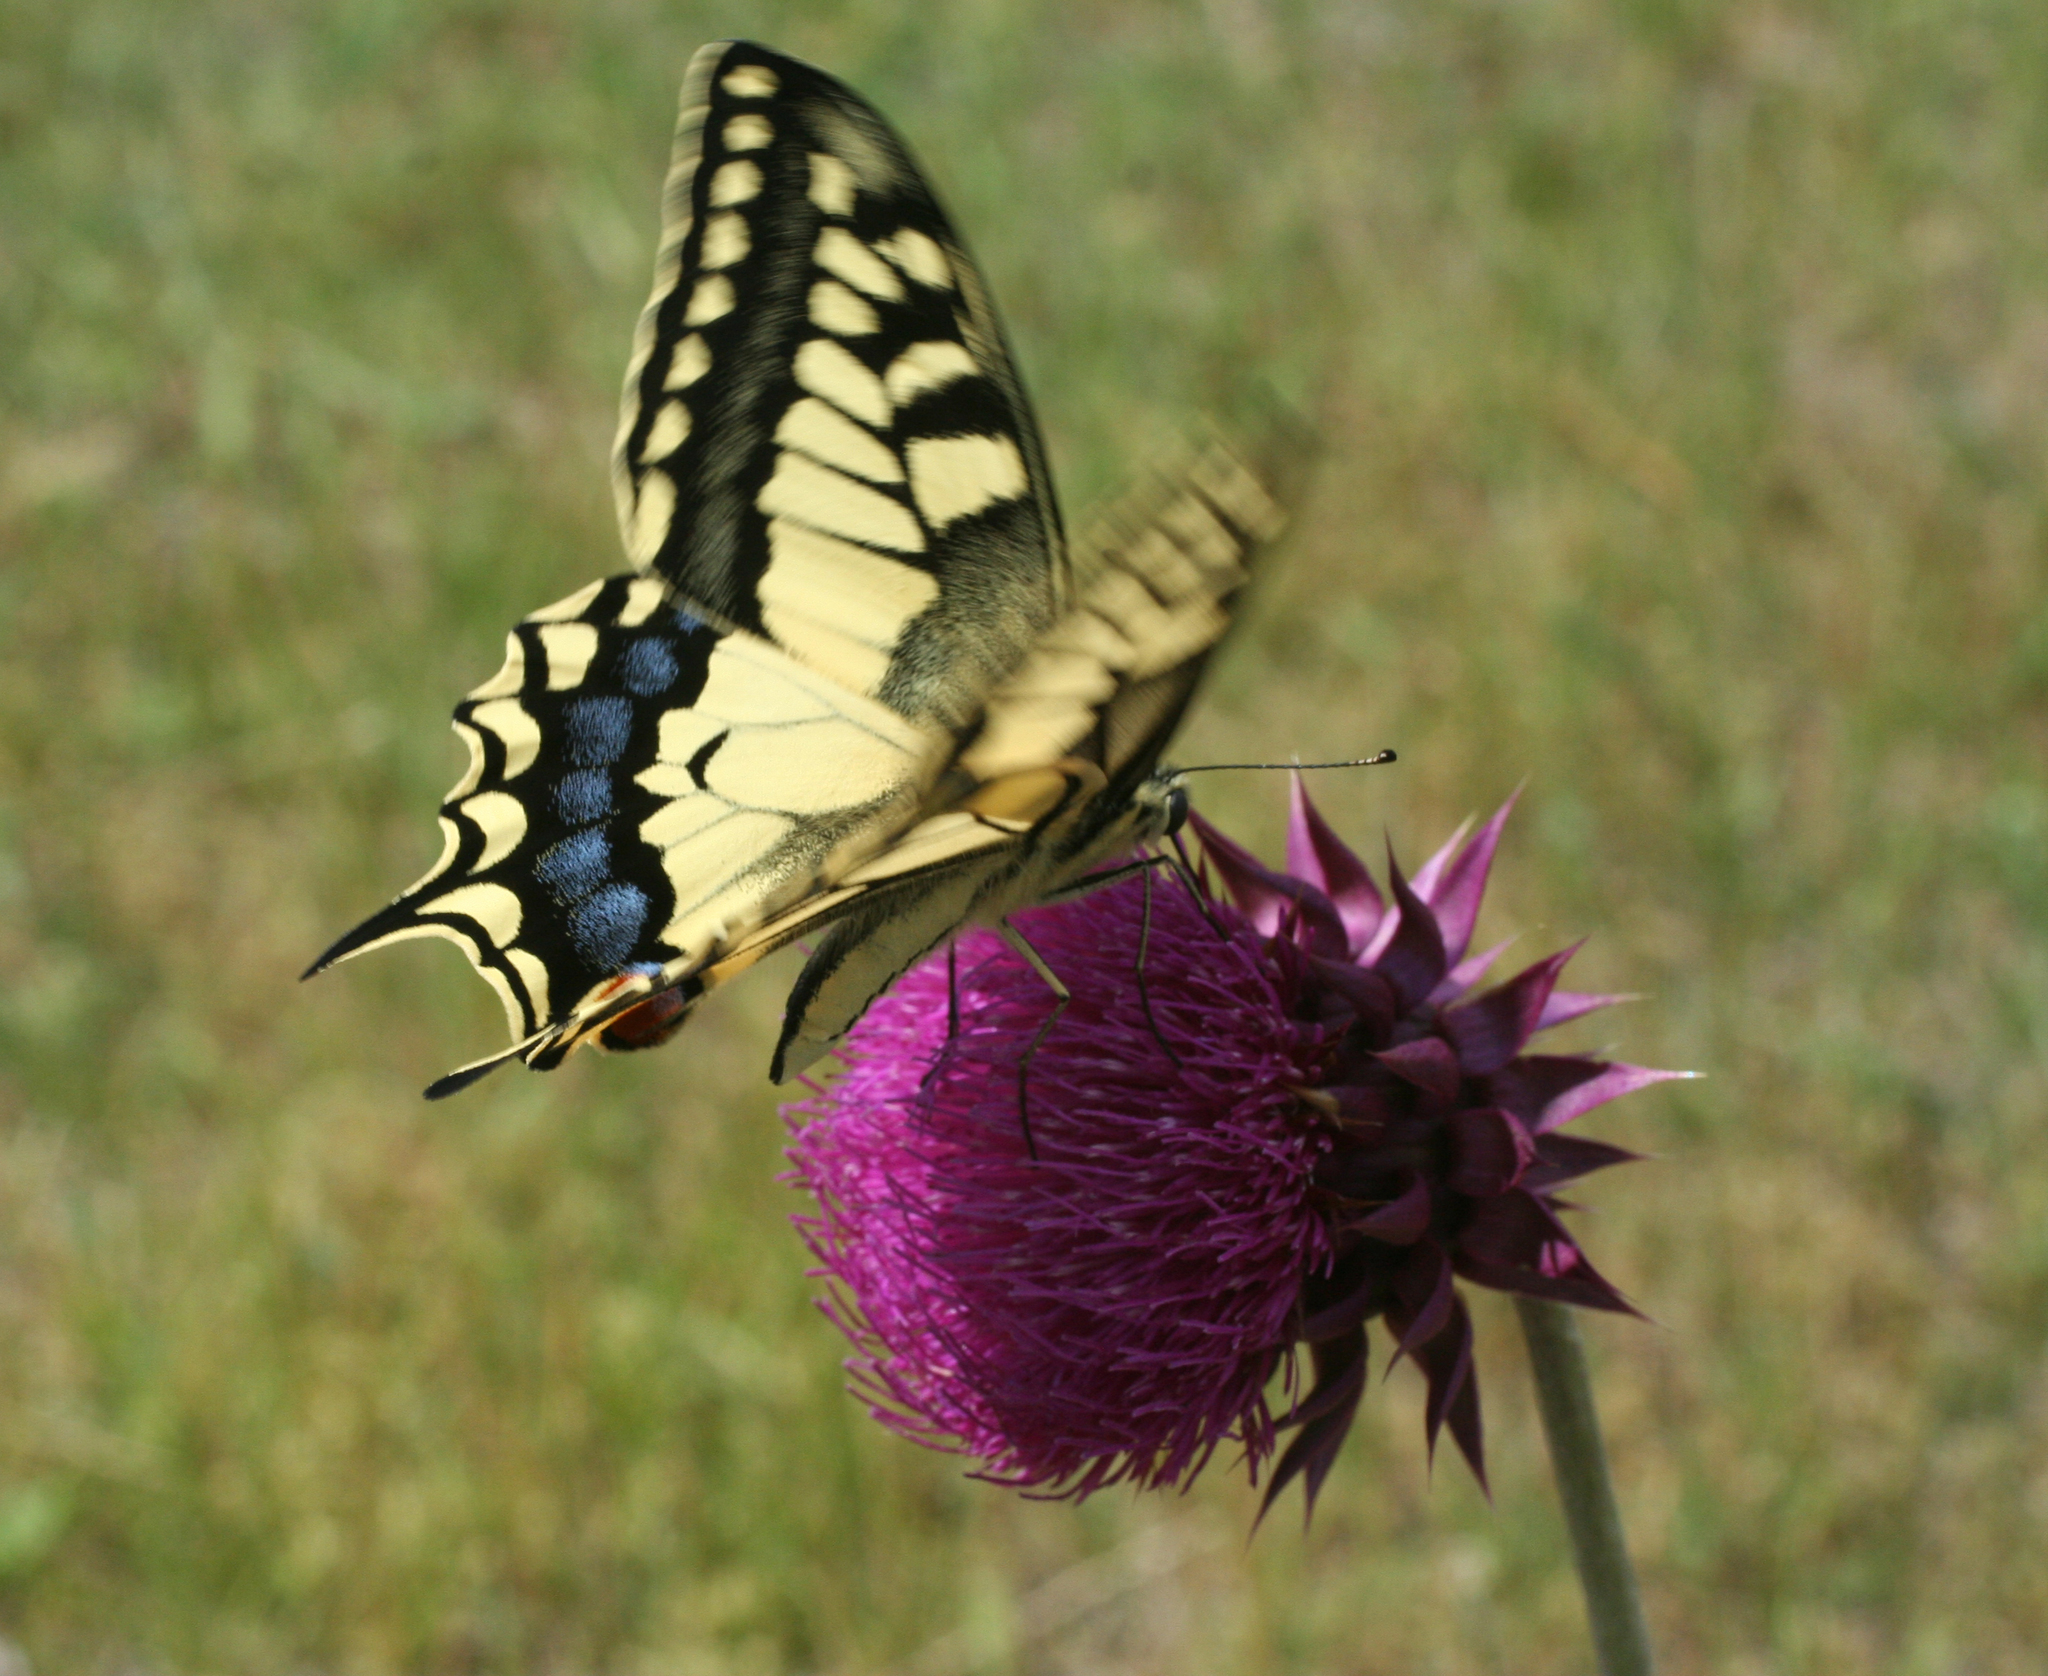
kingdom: Animalia
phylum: Arthropoda
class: Insecta
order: Lepidoptera
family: Papilionidae
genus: Papilio
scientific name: Papilio machaon
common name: Swallowtail
